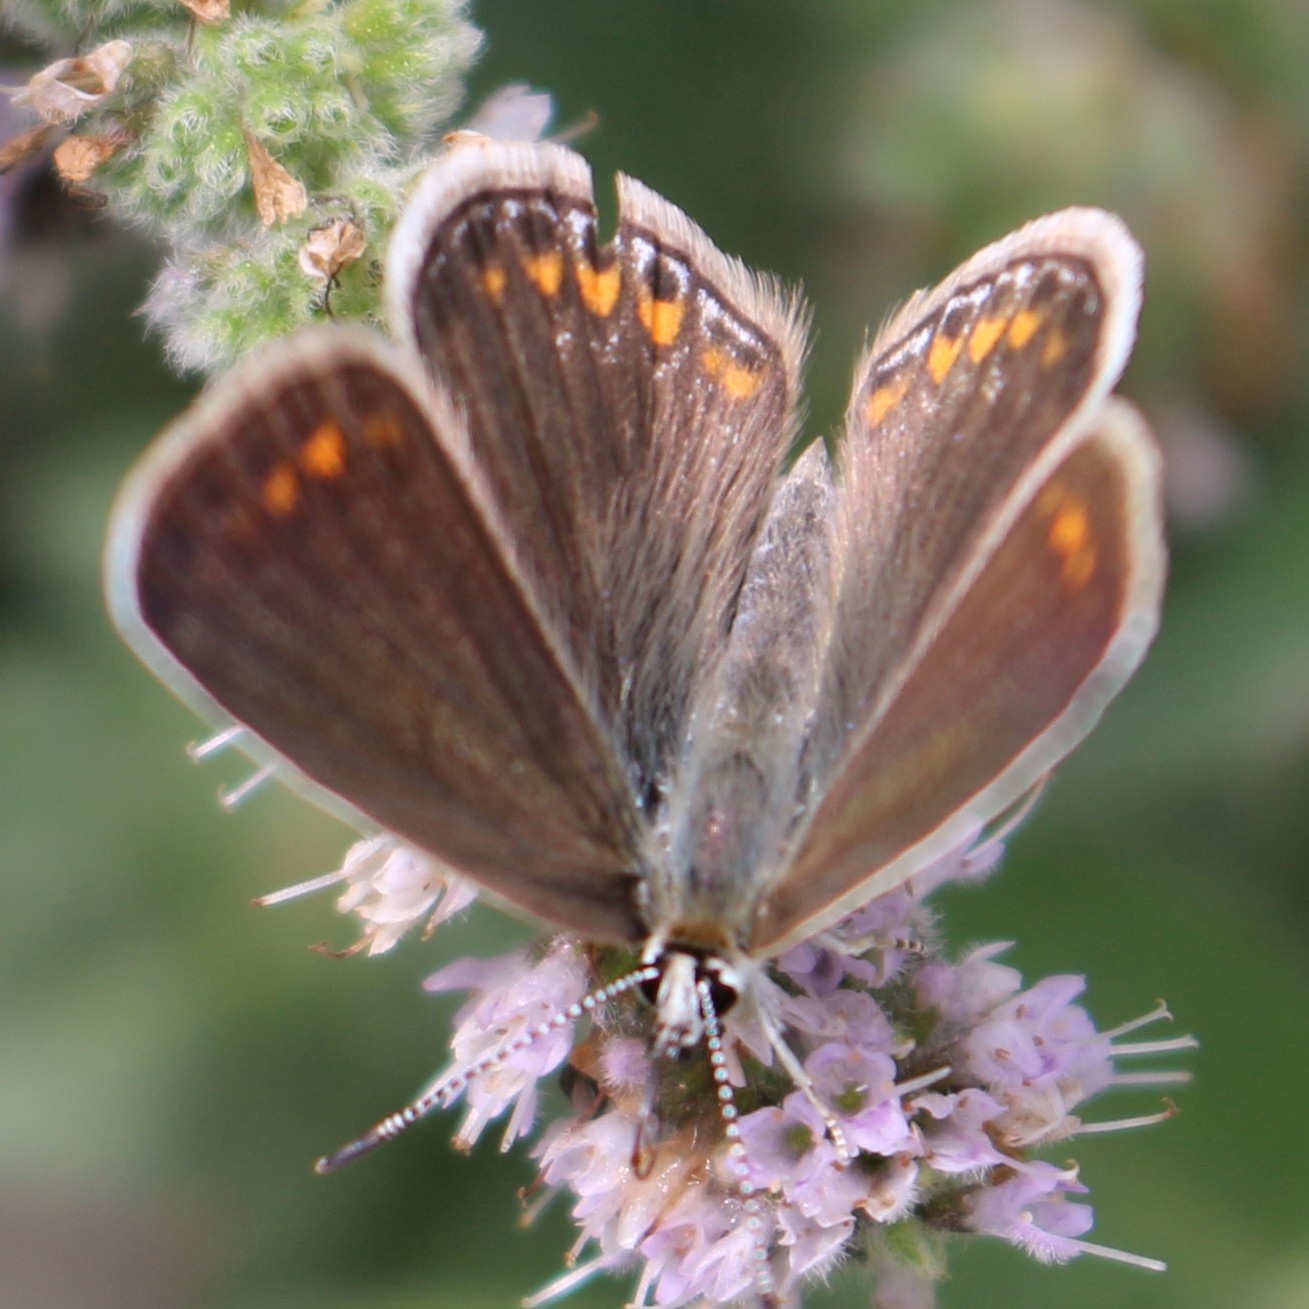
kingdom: Animalia
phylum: Arthropoda
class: Insecta
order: Lepidoptera
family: Lycaenidae
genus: Polyommatus
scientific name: Polyommatus icarus
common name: Common blue
